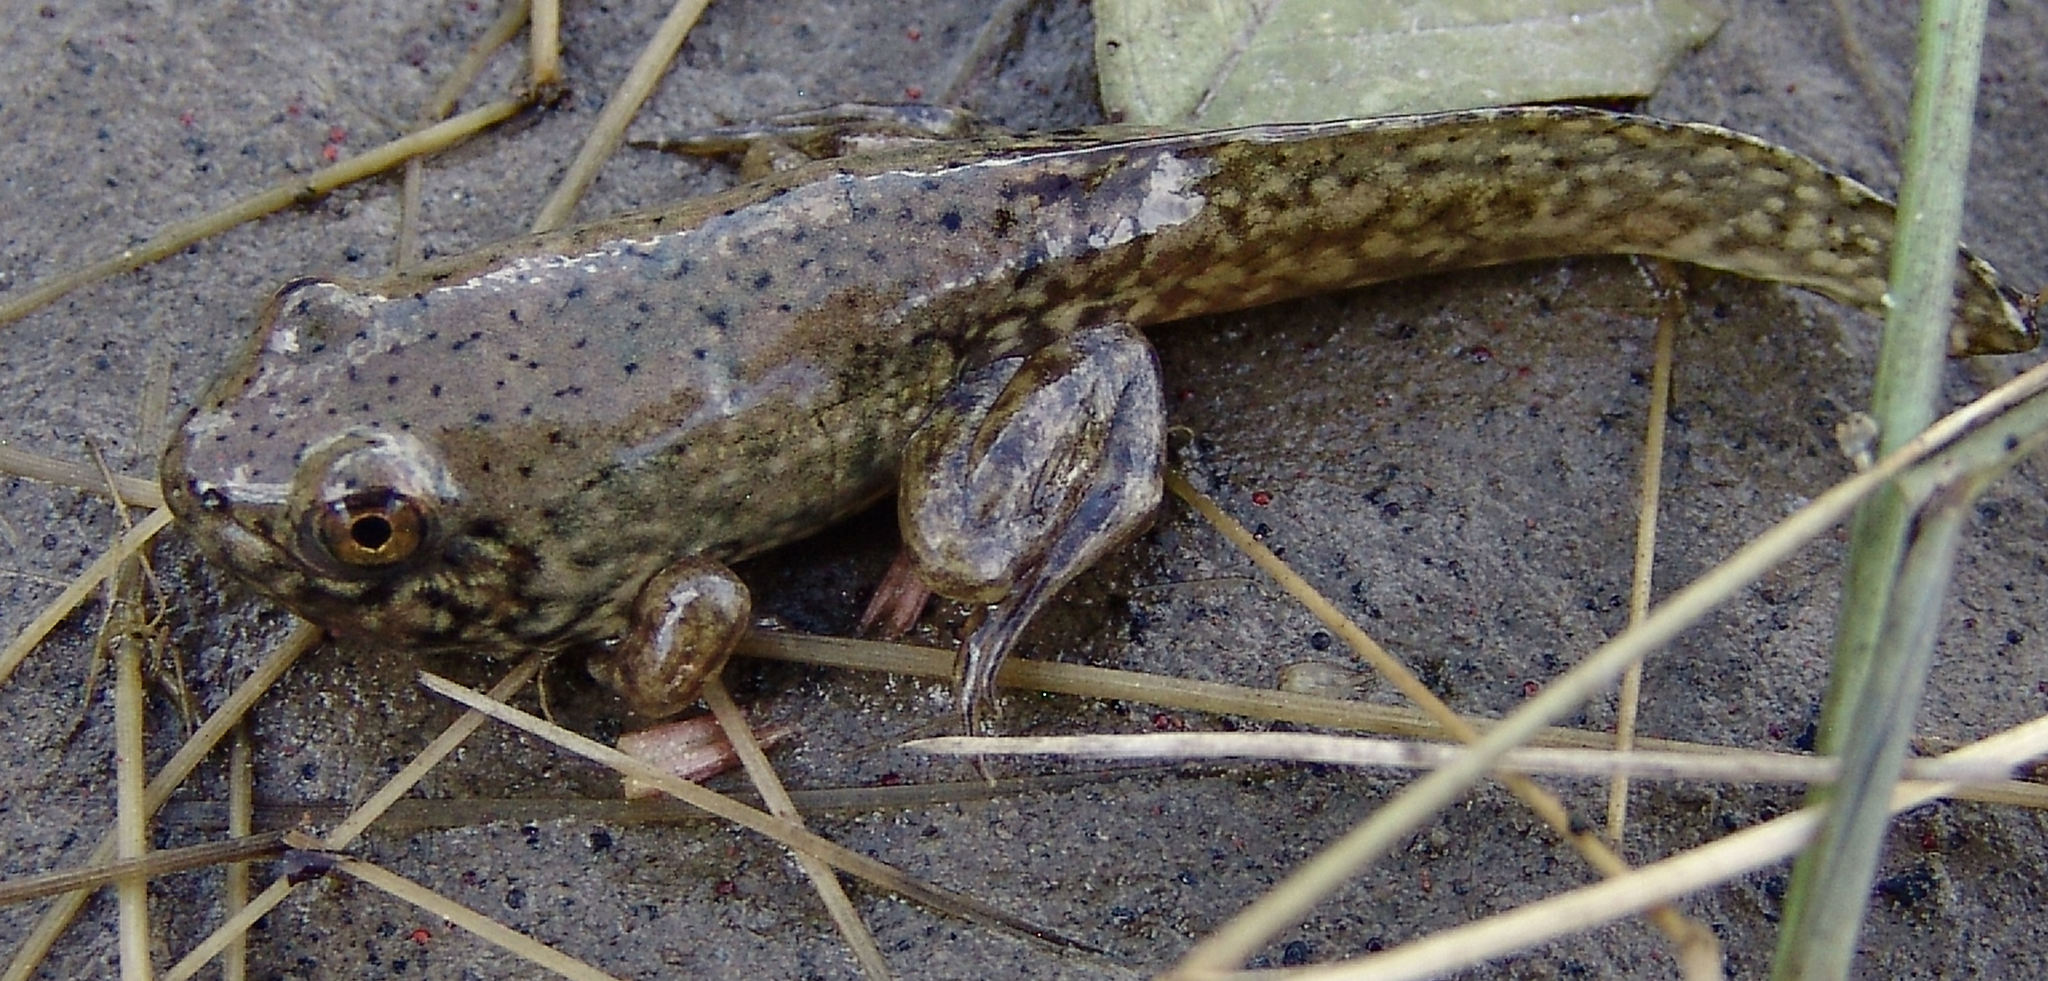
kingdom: Animalia
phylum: Chordata
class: Amphibia
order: Anura
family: Ranidae
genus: Lithobates
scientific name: Lithobates catesbeianus
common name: American bullfrog
